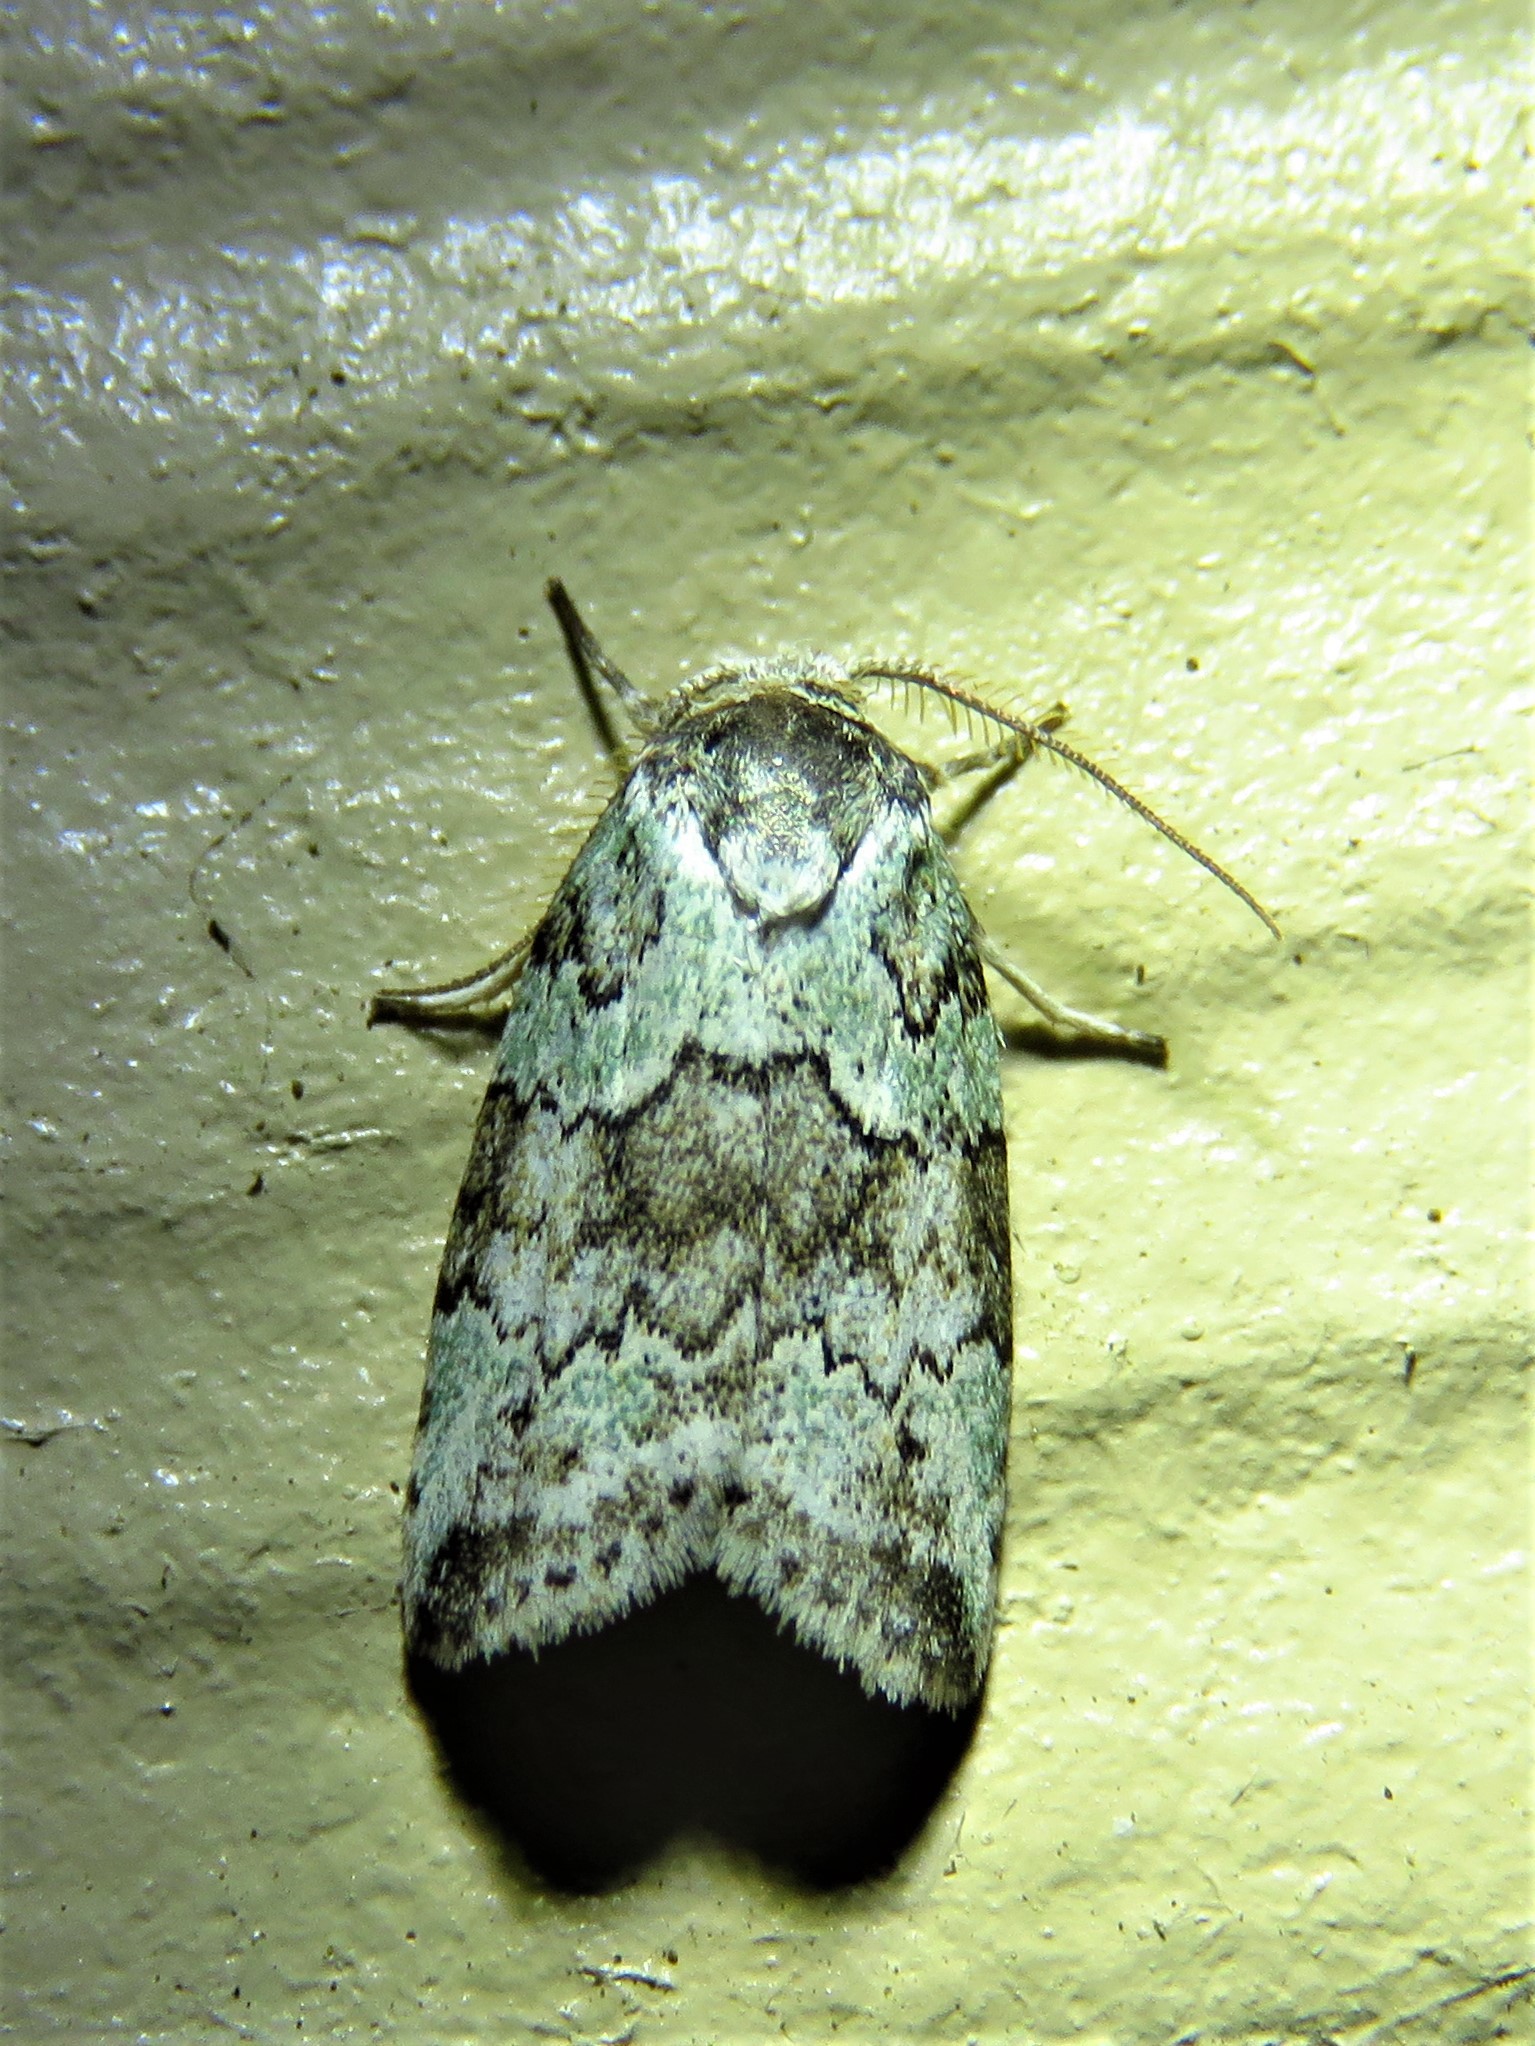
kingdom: Animalia
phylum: Arthropoda
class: Insecta
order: Lepidoptera
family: Nolidae
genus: Afrida
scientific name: Afrida ydatodes
